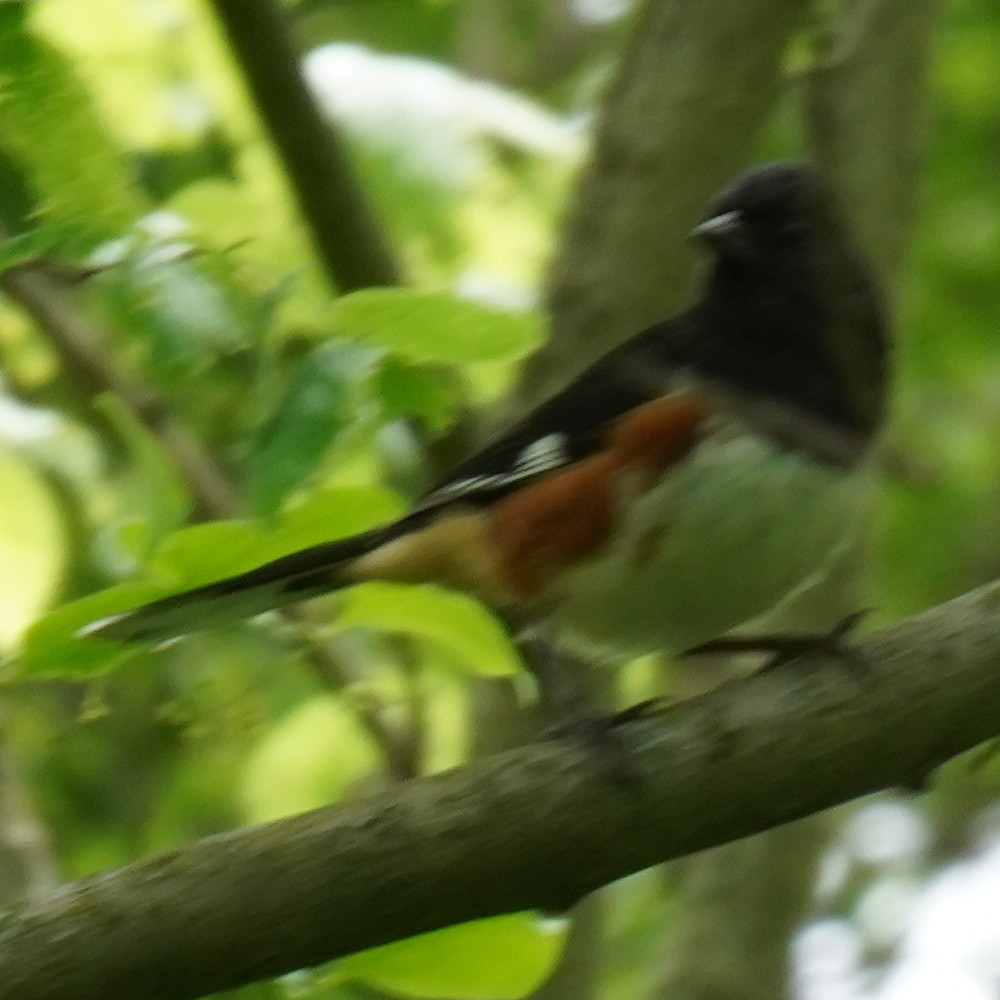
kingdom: Animalia
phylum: Chordata
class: Aves
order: Passeriformes
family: Passerellidae
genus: Pipilo
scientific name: Pipilo erythrophthalmus
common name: Eastern towhee
